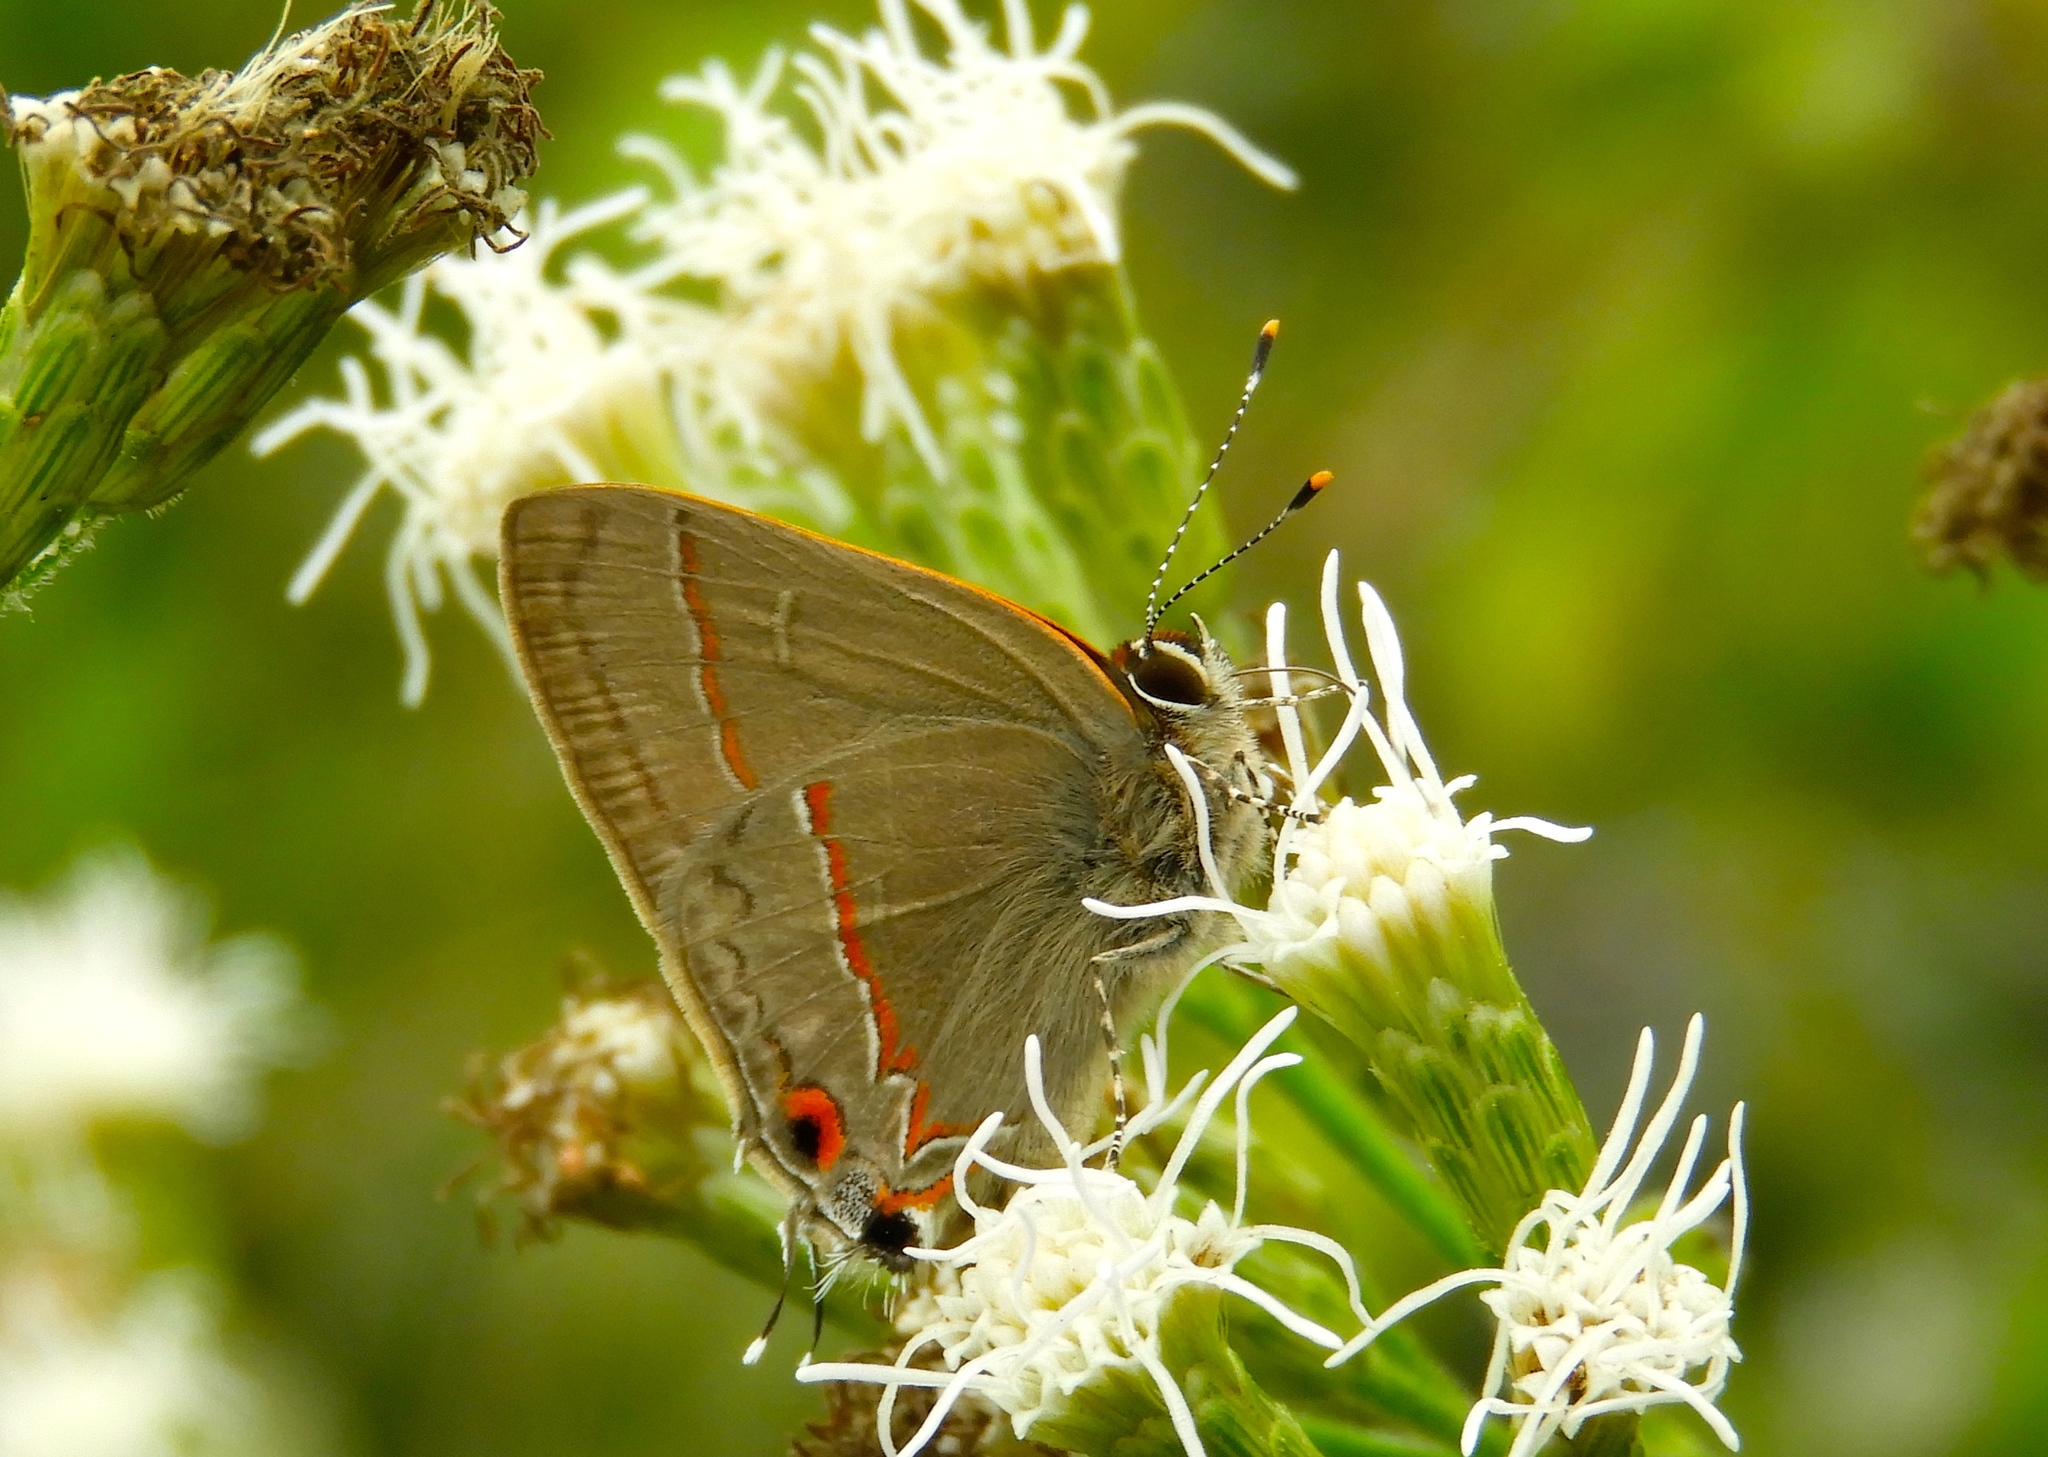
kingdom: Animalia
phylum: Arthropoda
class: Insecta
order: Lepidoptera
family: Lycaenidae
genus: Electrostrymon
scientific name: Electrostrymon endymion
